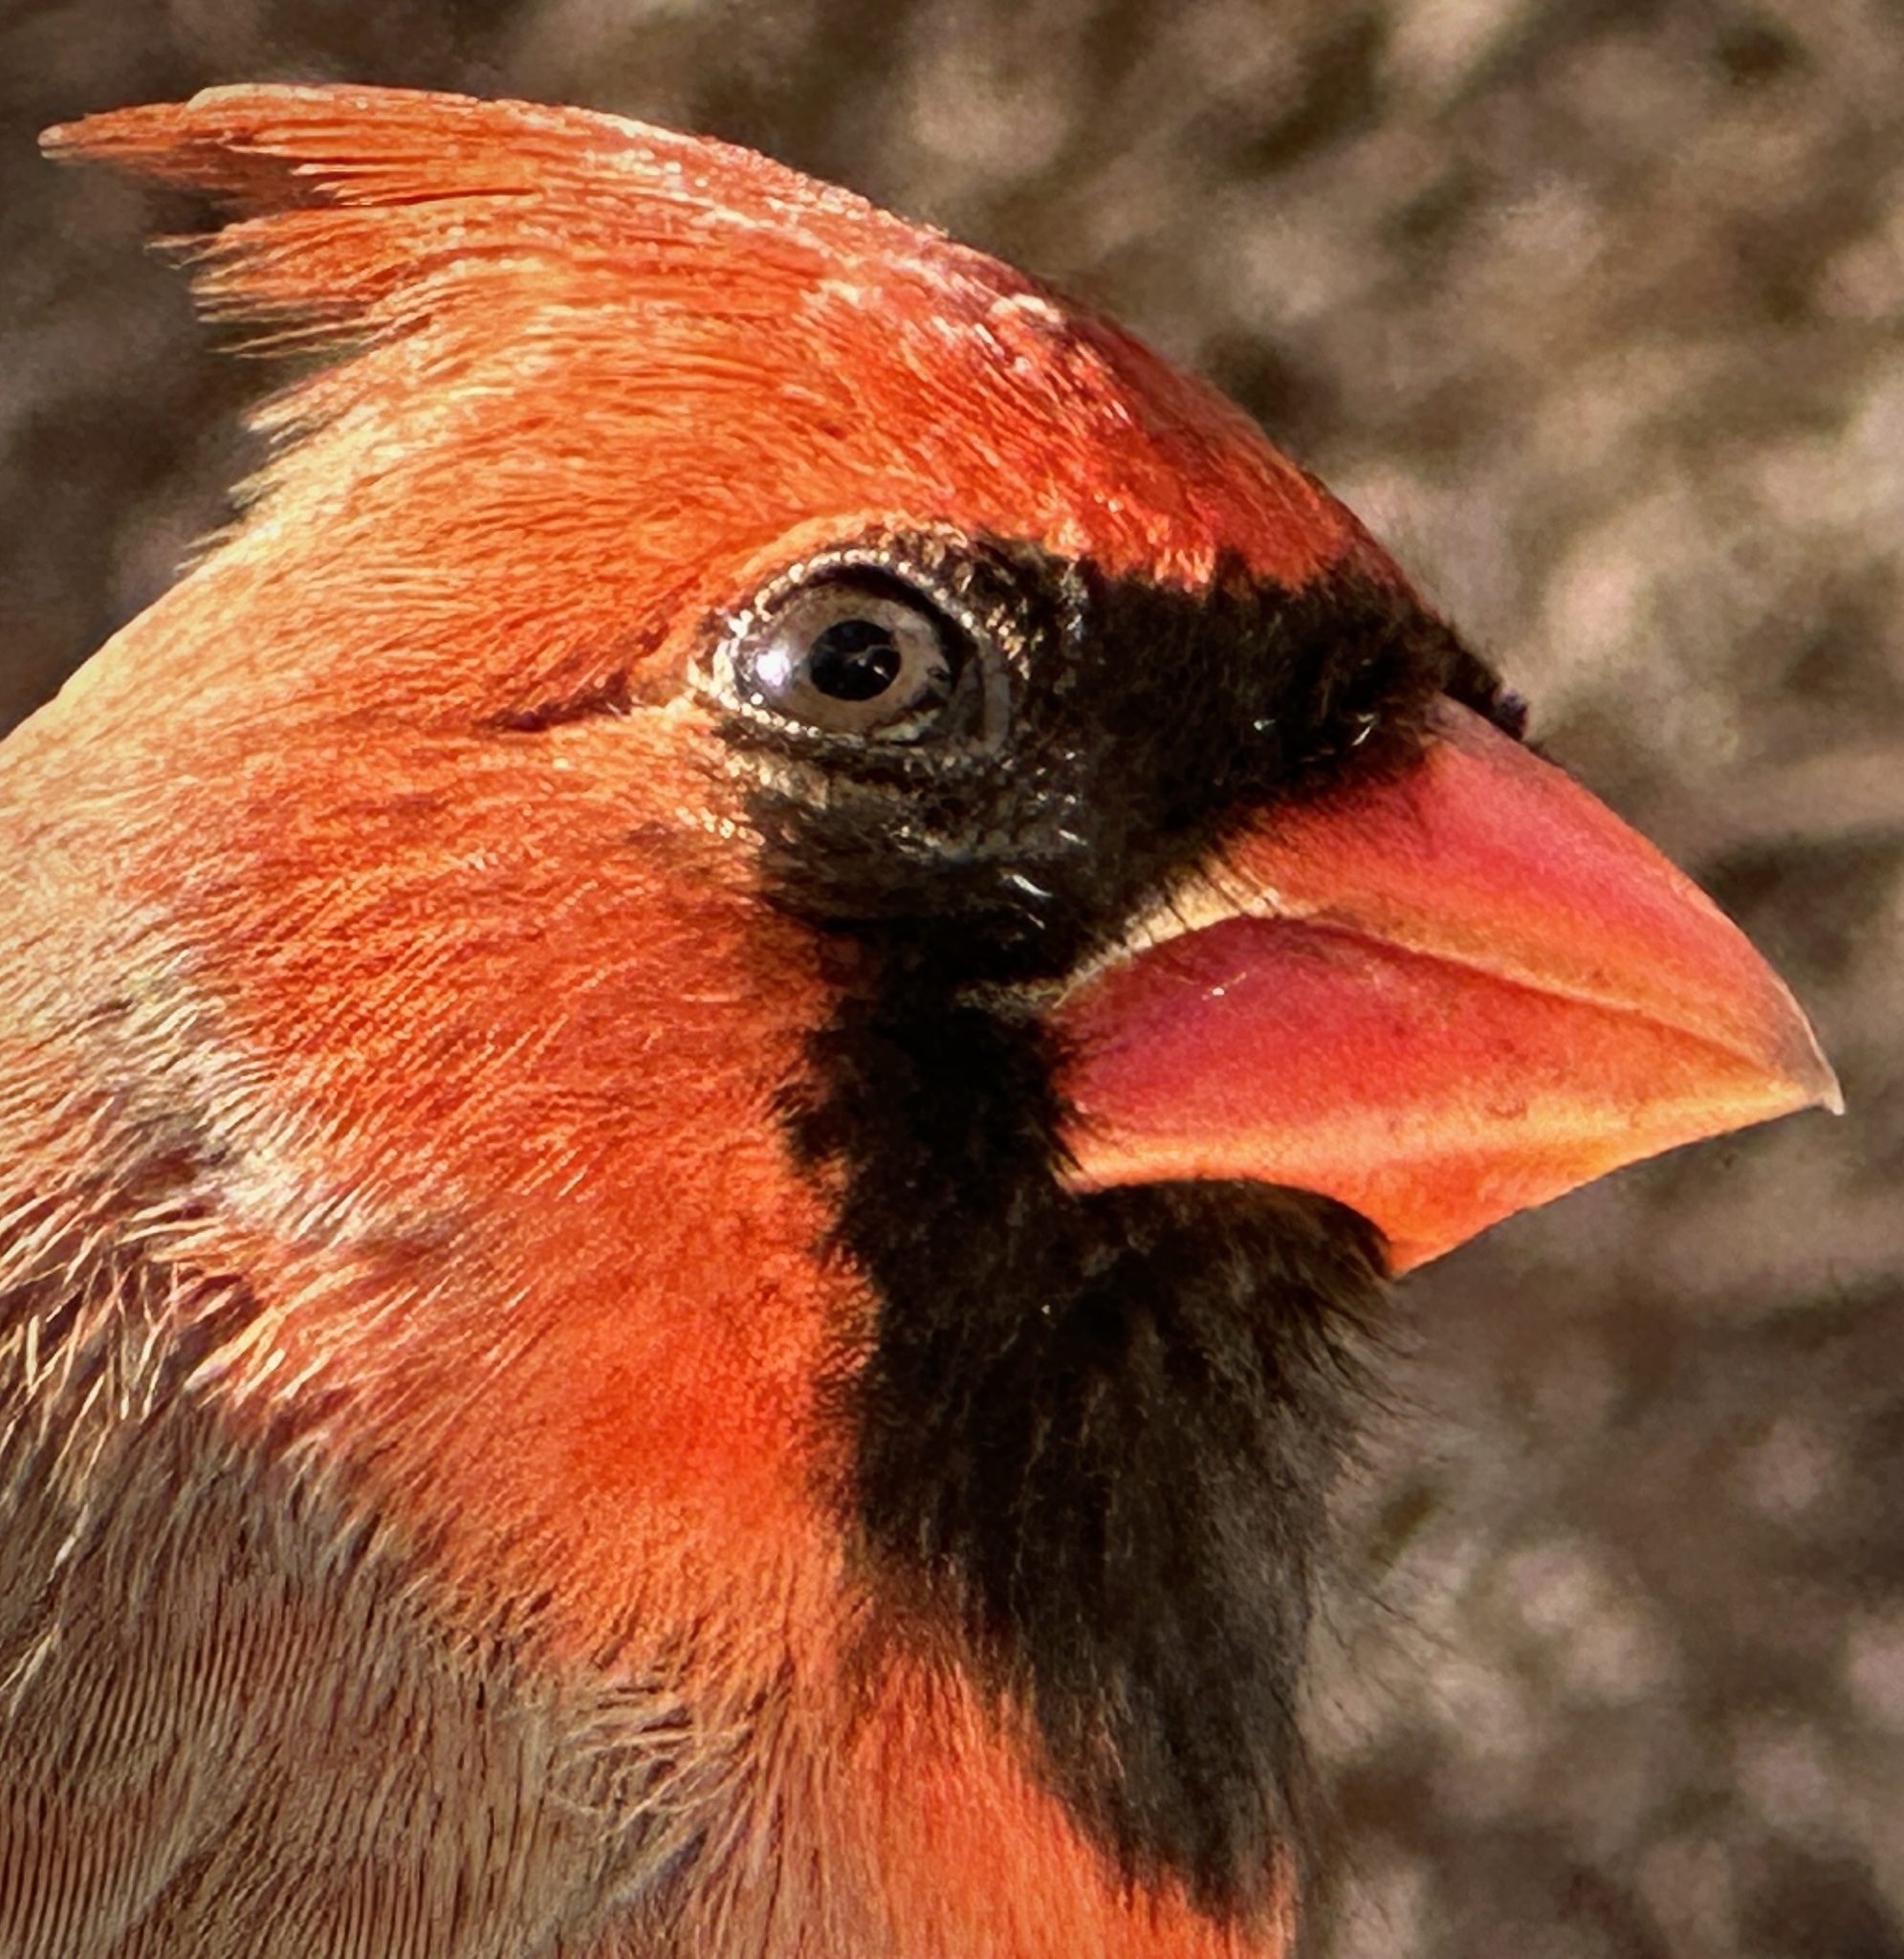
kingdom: Animalia
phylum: Chordata
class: Aves
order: Passeriformes
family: Cardinalidae
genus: Cardinalis
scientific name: Cardinalis cardinalis
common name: Northern cardinal
